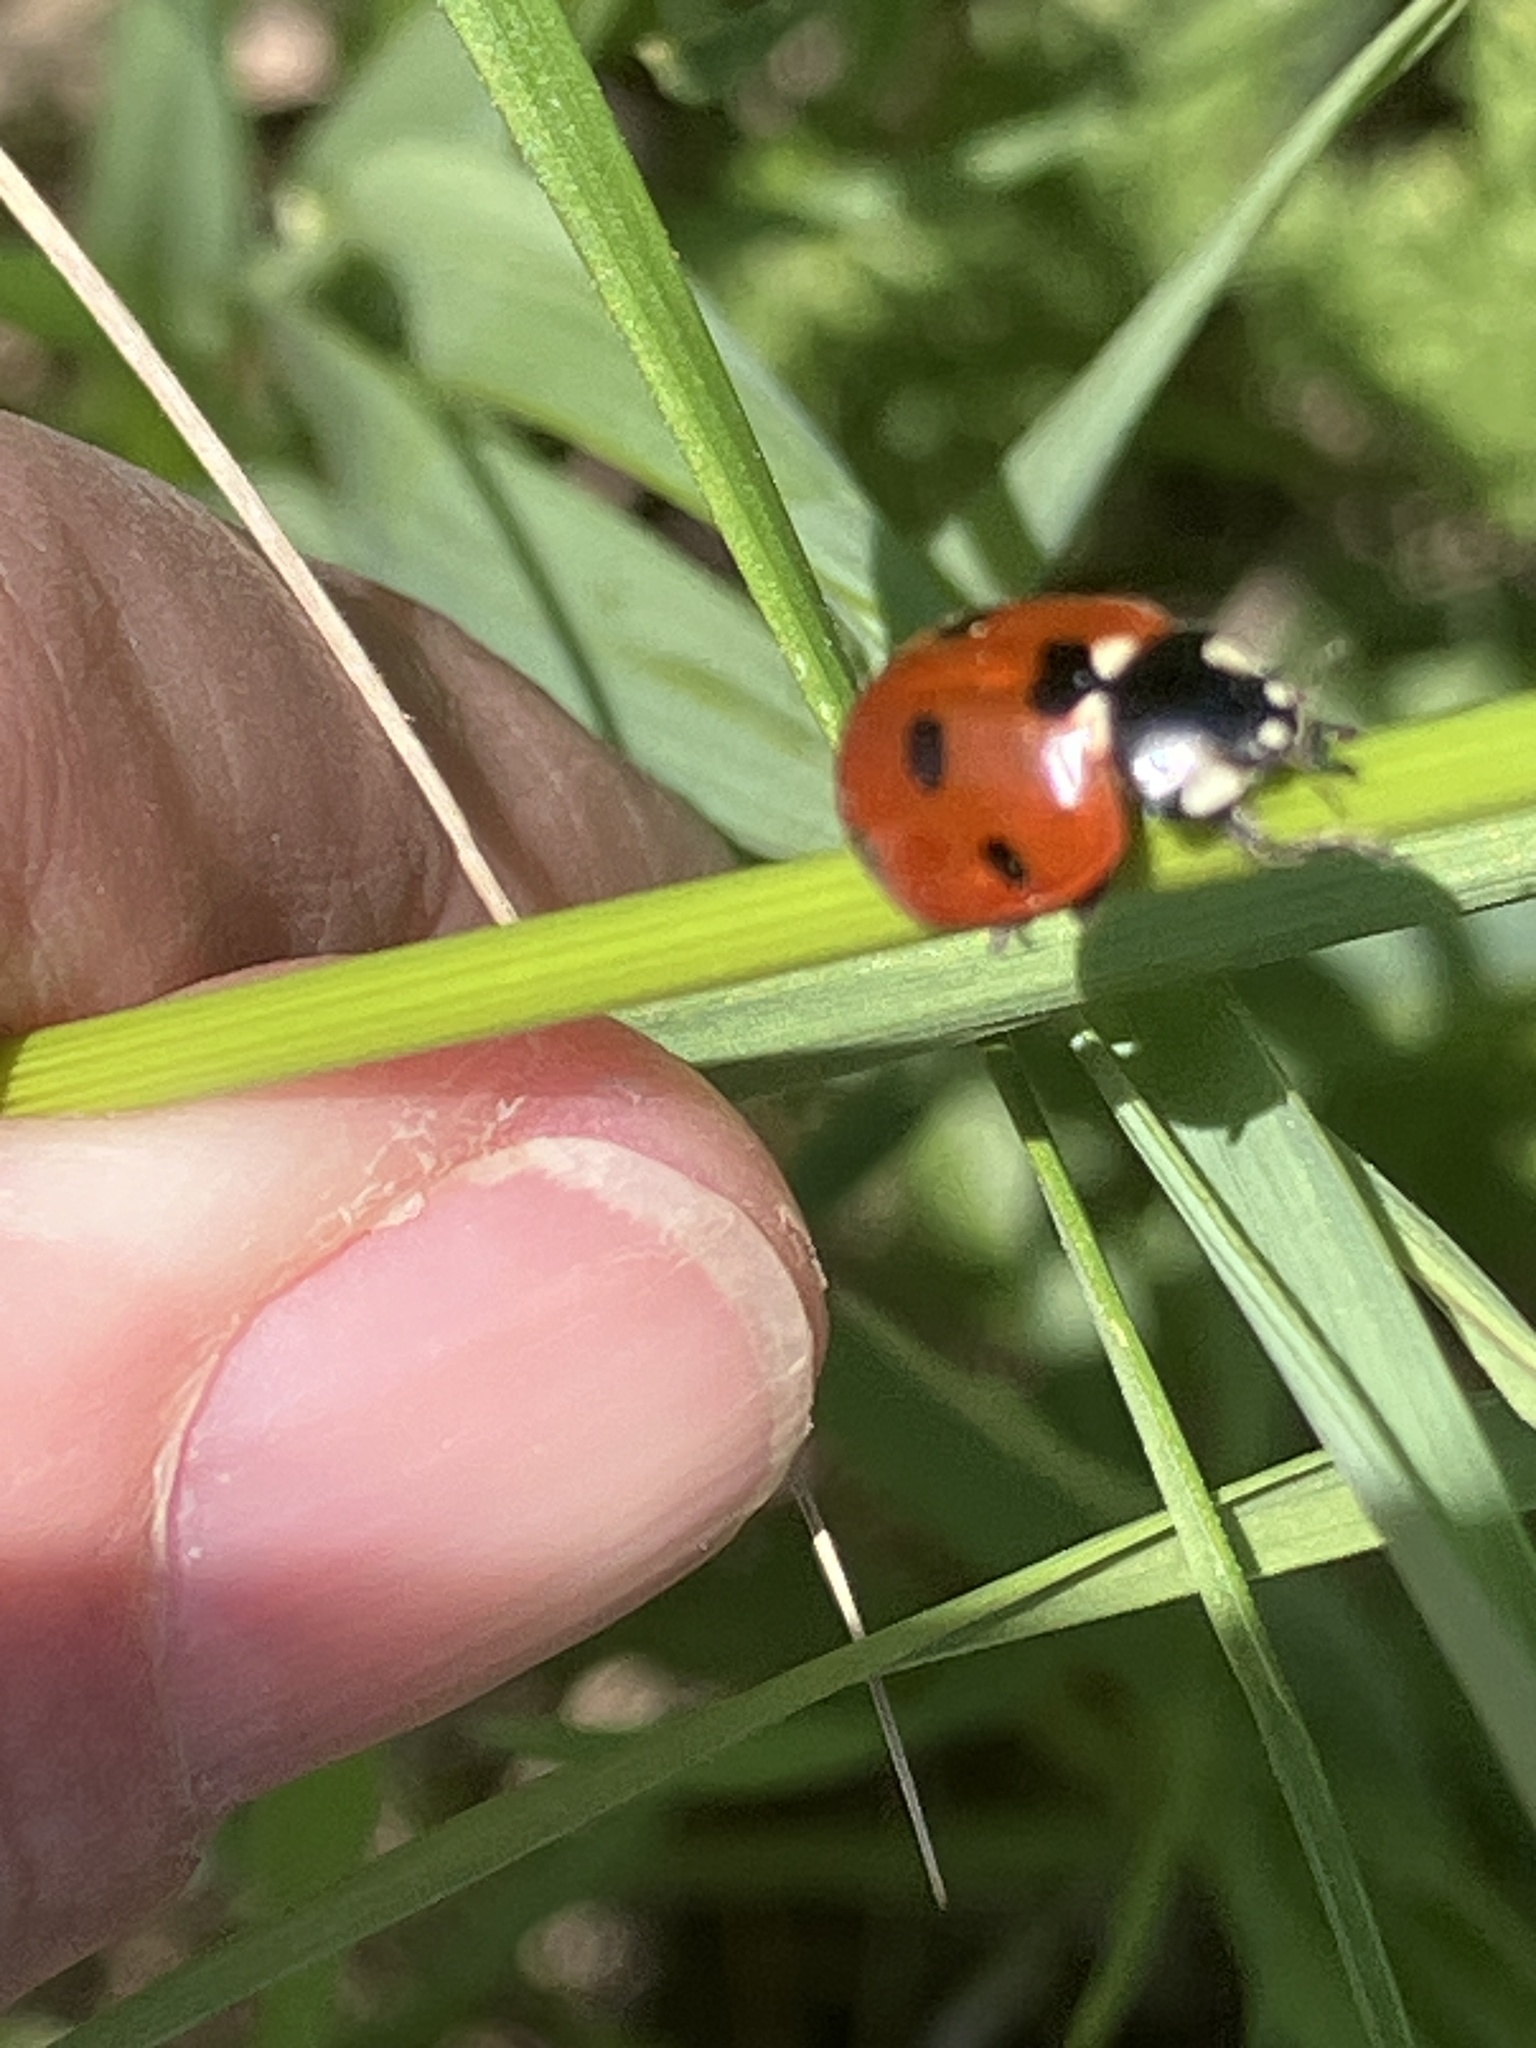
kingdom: Animalia
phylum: Arthropoda
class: Insecta
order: Coleoptera
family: Coccinellidae
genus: Coccinella
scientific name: Coccinella septempunctata
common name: Sevenspotted lady beetle
